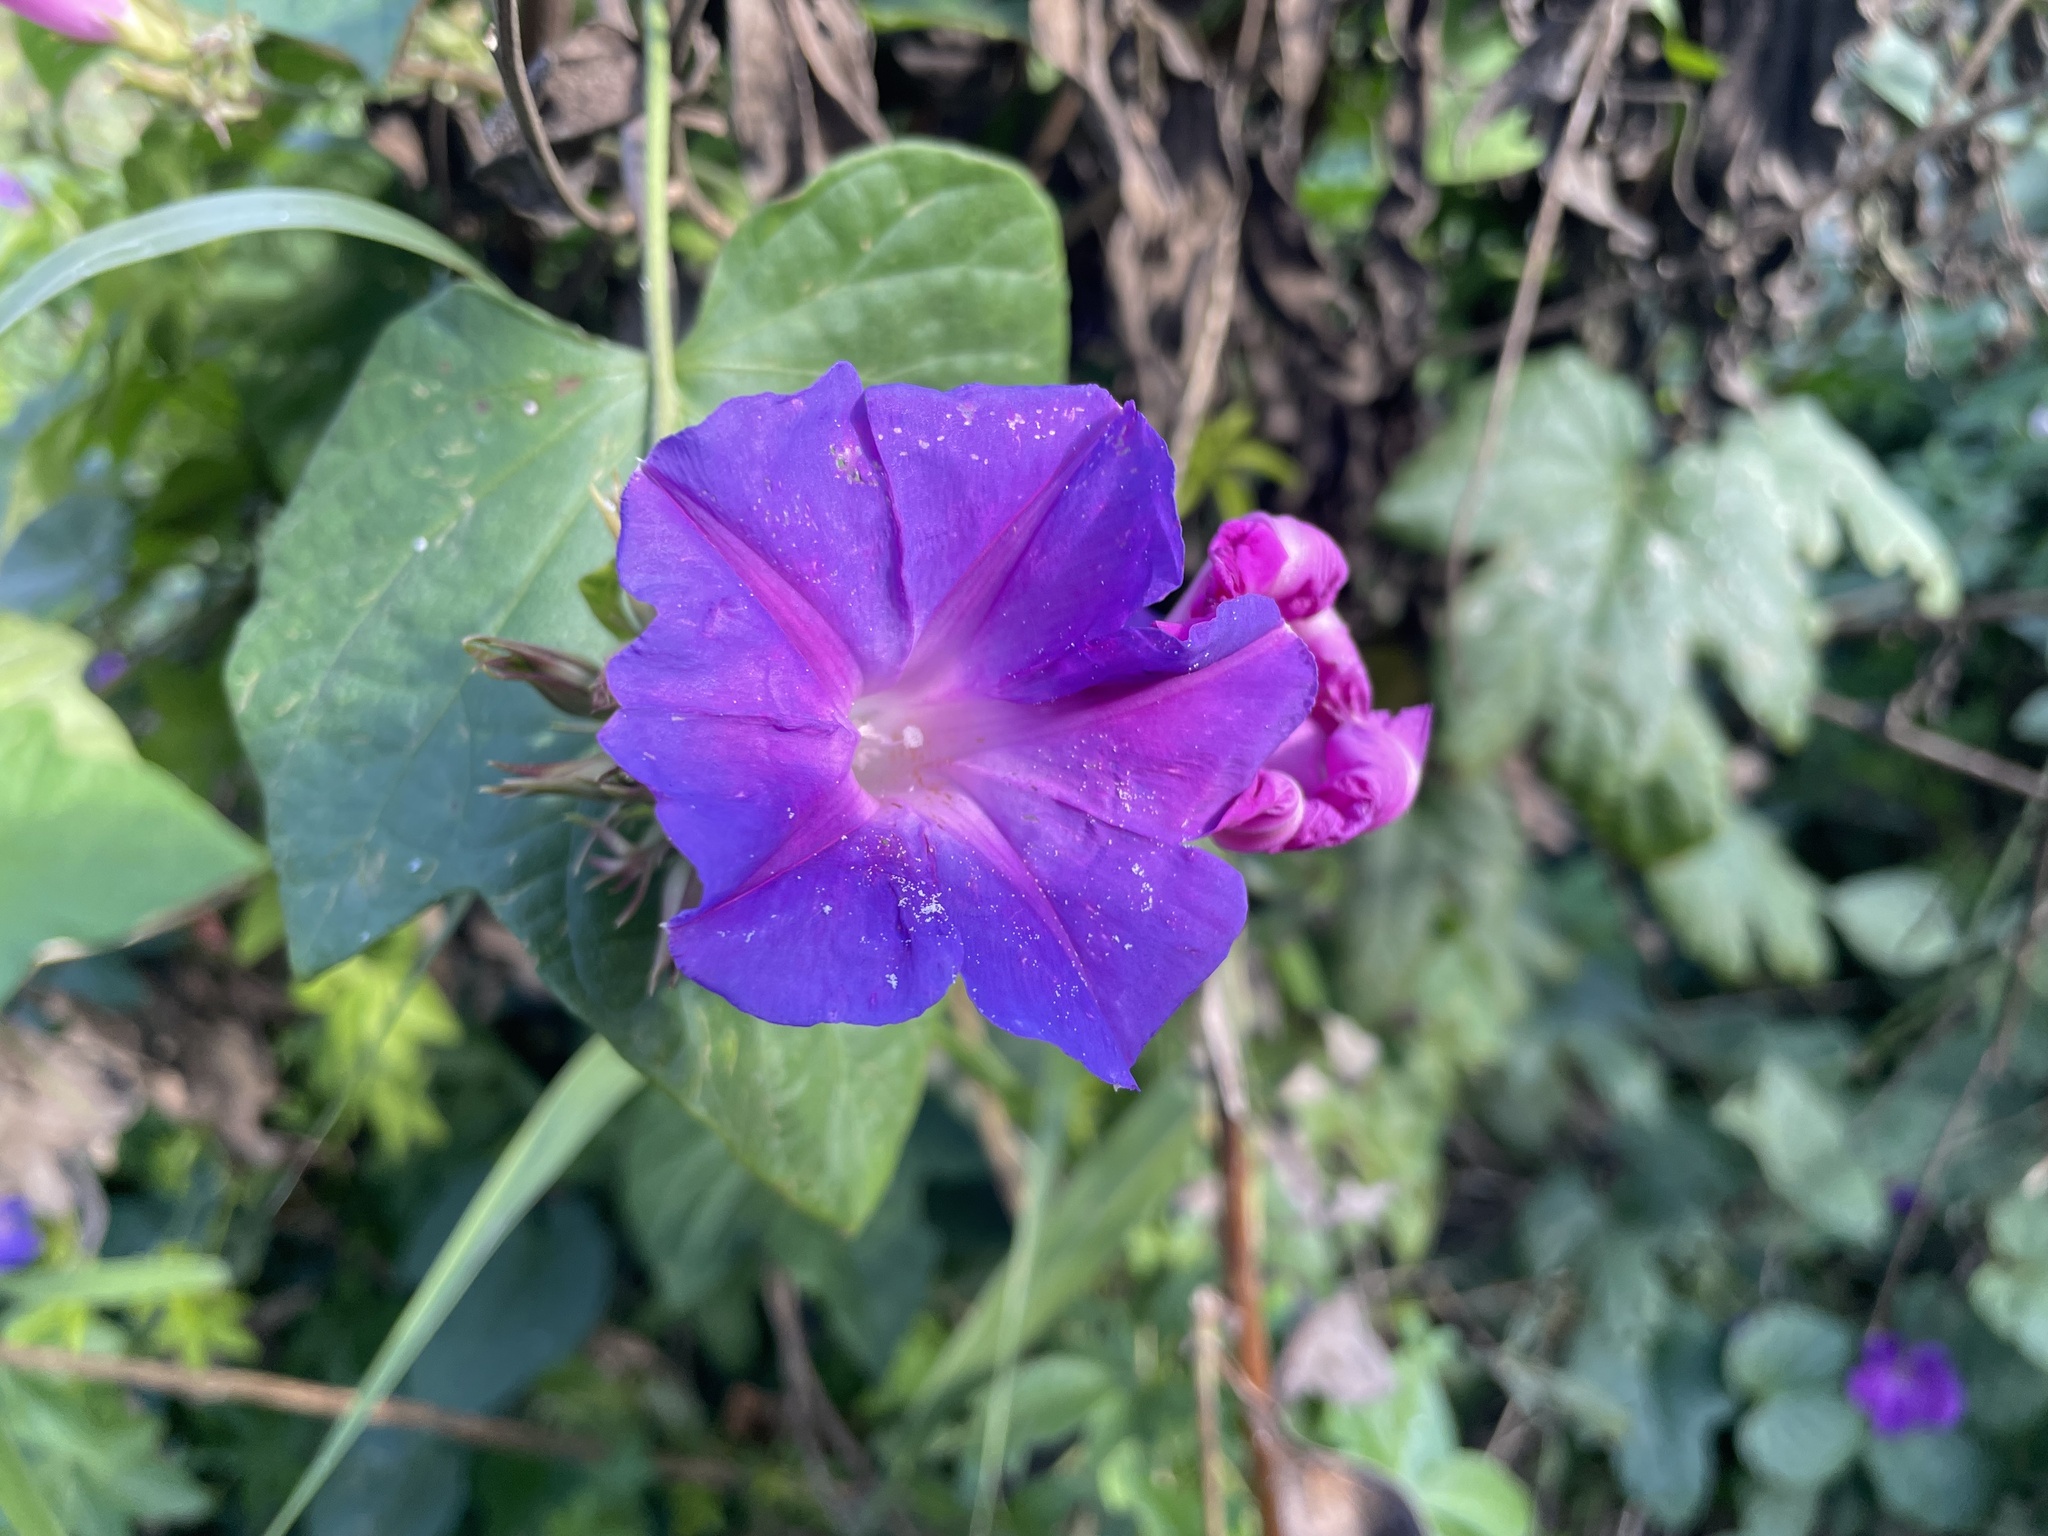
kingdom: Plantae
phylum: Tracheophyta
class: Magnoliopsida
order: Solanales
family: Convolvulaceae
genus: Ipomoea
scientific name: Ipomoea indica
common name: Blue dawnflower
